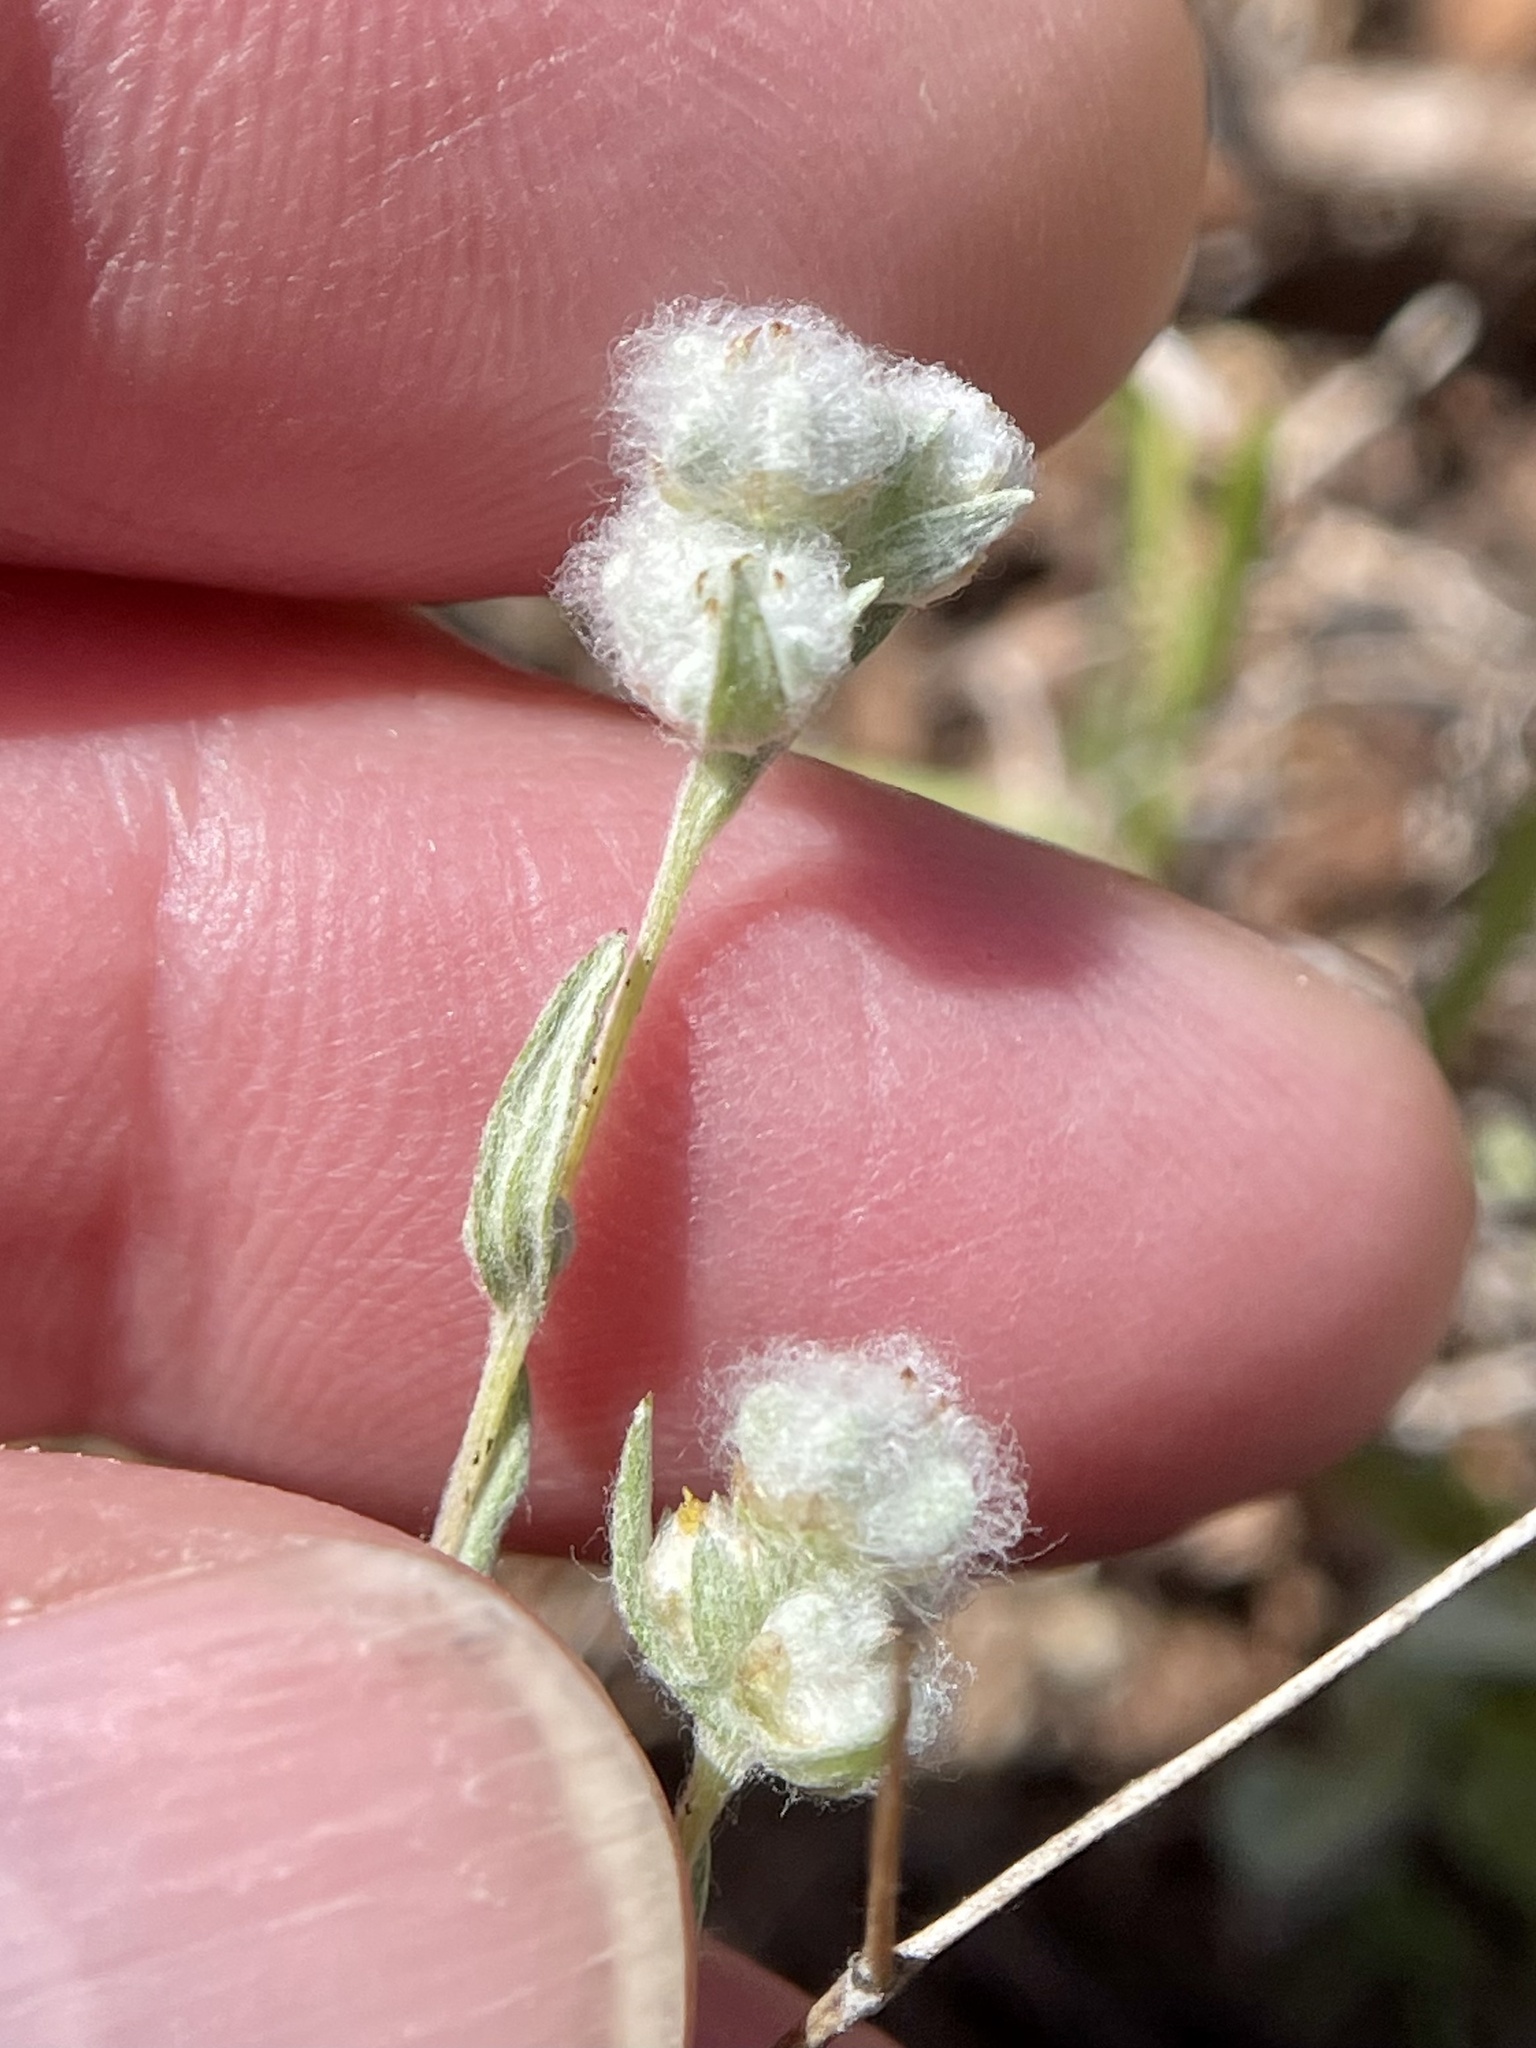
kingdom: Plantae
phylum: Tracheophyta
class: Magnoliopsida
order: Asterales
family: Asteraceae
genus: Bombycilaena
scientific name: Bombycilaena californica
